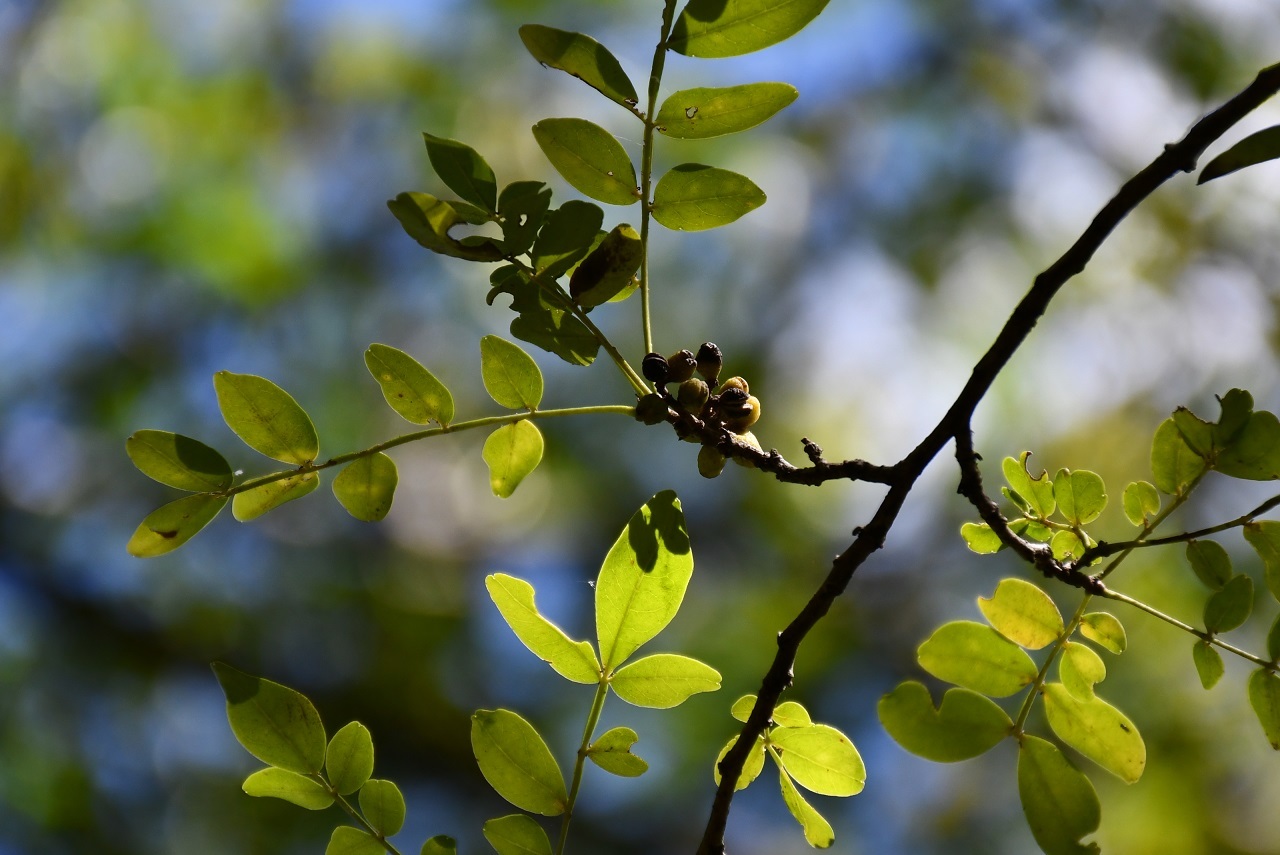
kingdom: Plantae
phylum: Tracheophyta
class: Magnoliopsida
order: Sapindales
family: Rutaceae
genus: Zanthoxylum
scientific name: Zanthoxylum arborescens
